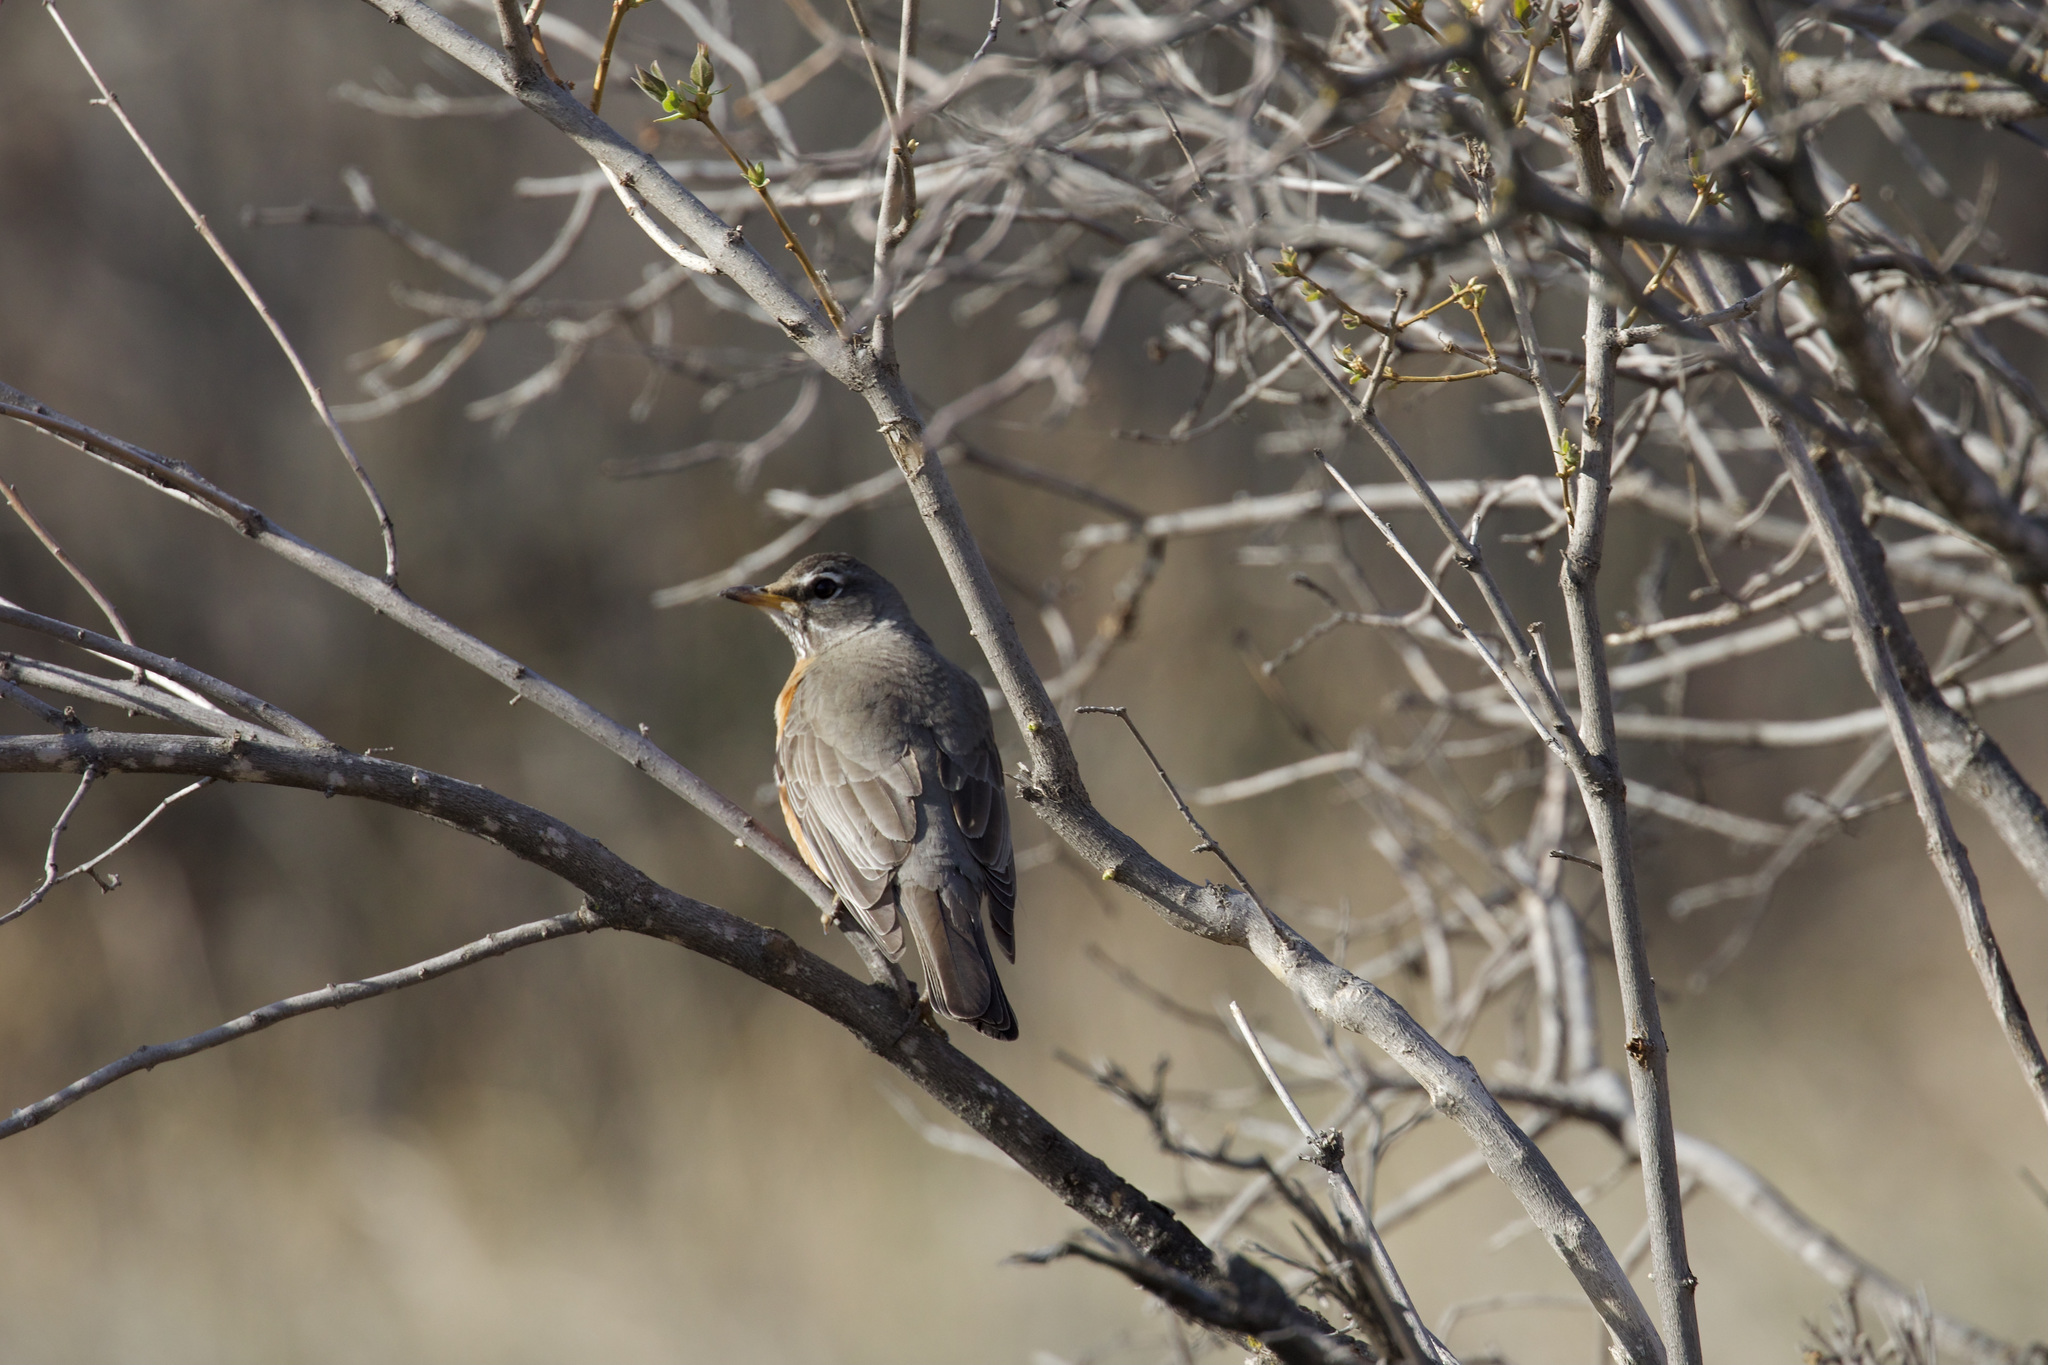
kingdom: Animalia
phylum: Chordata
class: Aves
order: Passeriformes
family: Turdidae
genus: Turdus
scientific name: Turdus migratorius
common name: American robin
